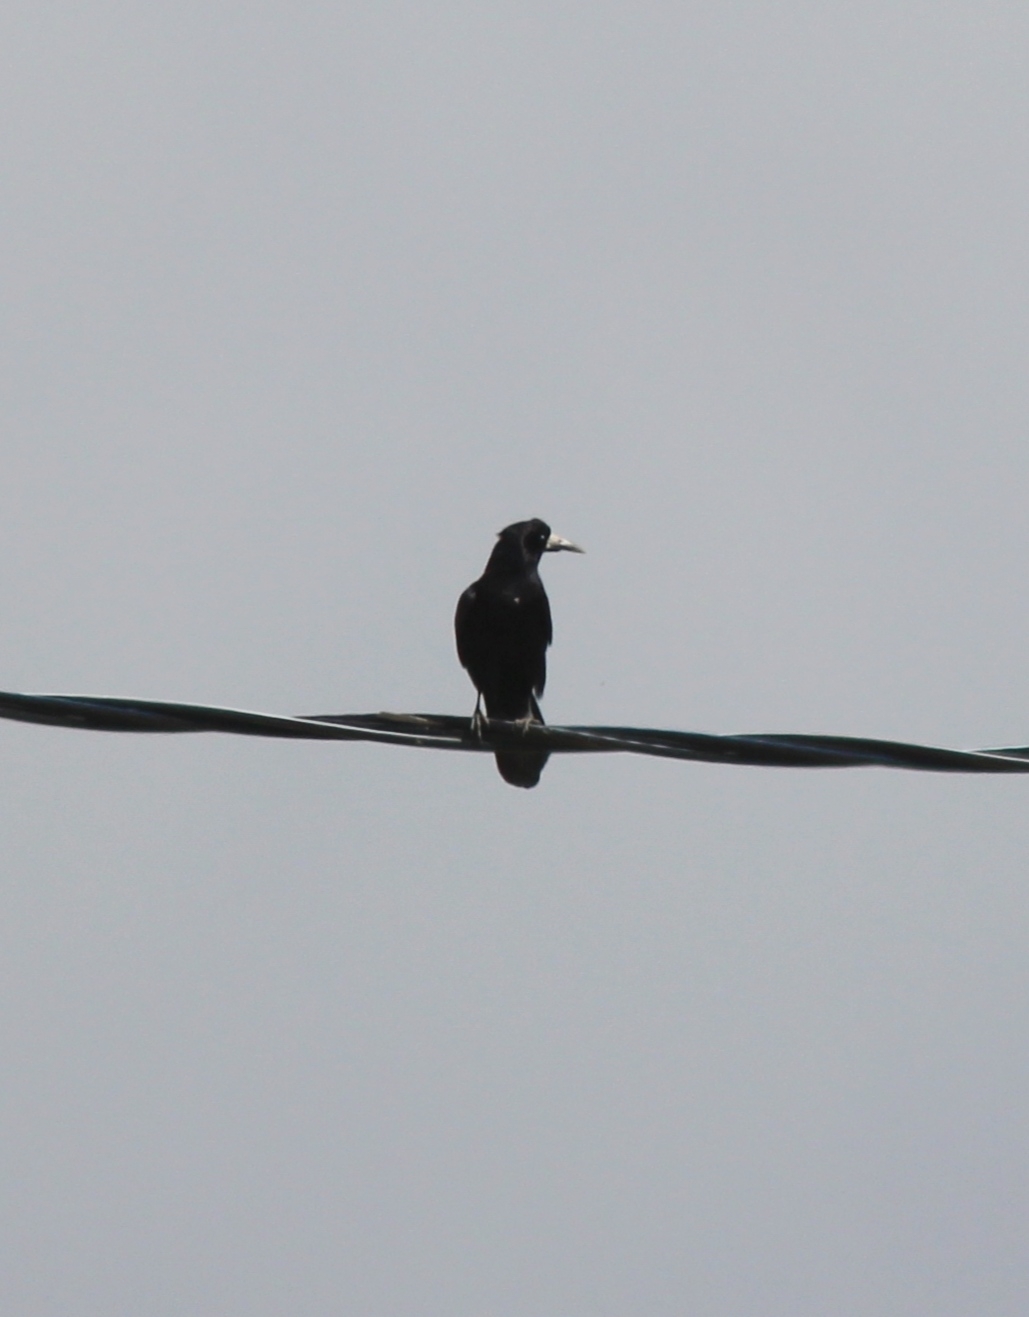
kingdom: Animalia
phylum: Chordata
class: Aves
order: Passeriformes
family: Corvidae
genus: Corvus
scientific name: Corvus frugilegus
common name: Rook
